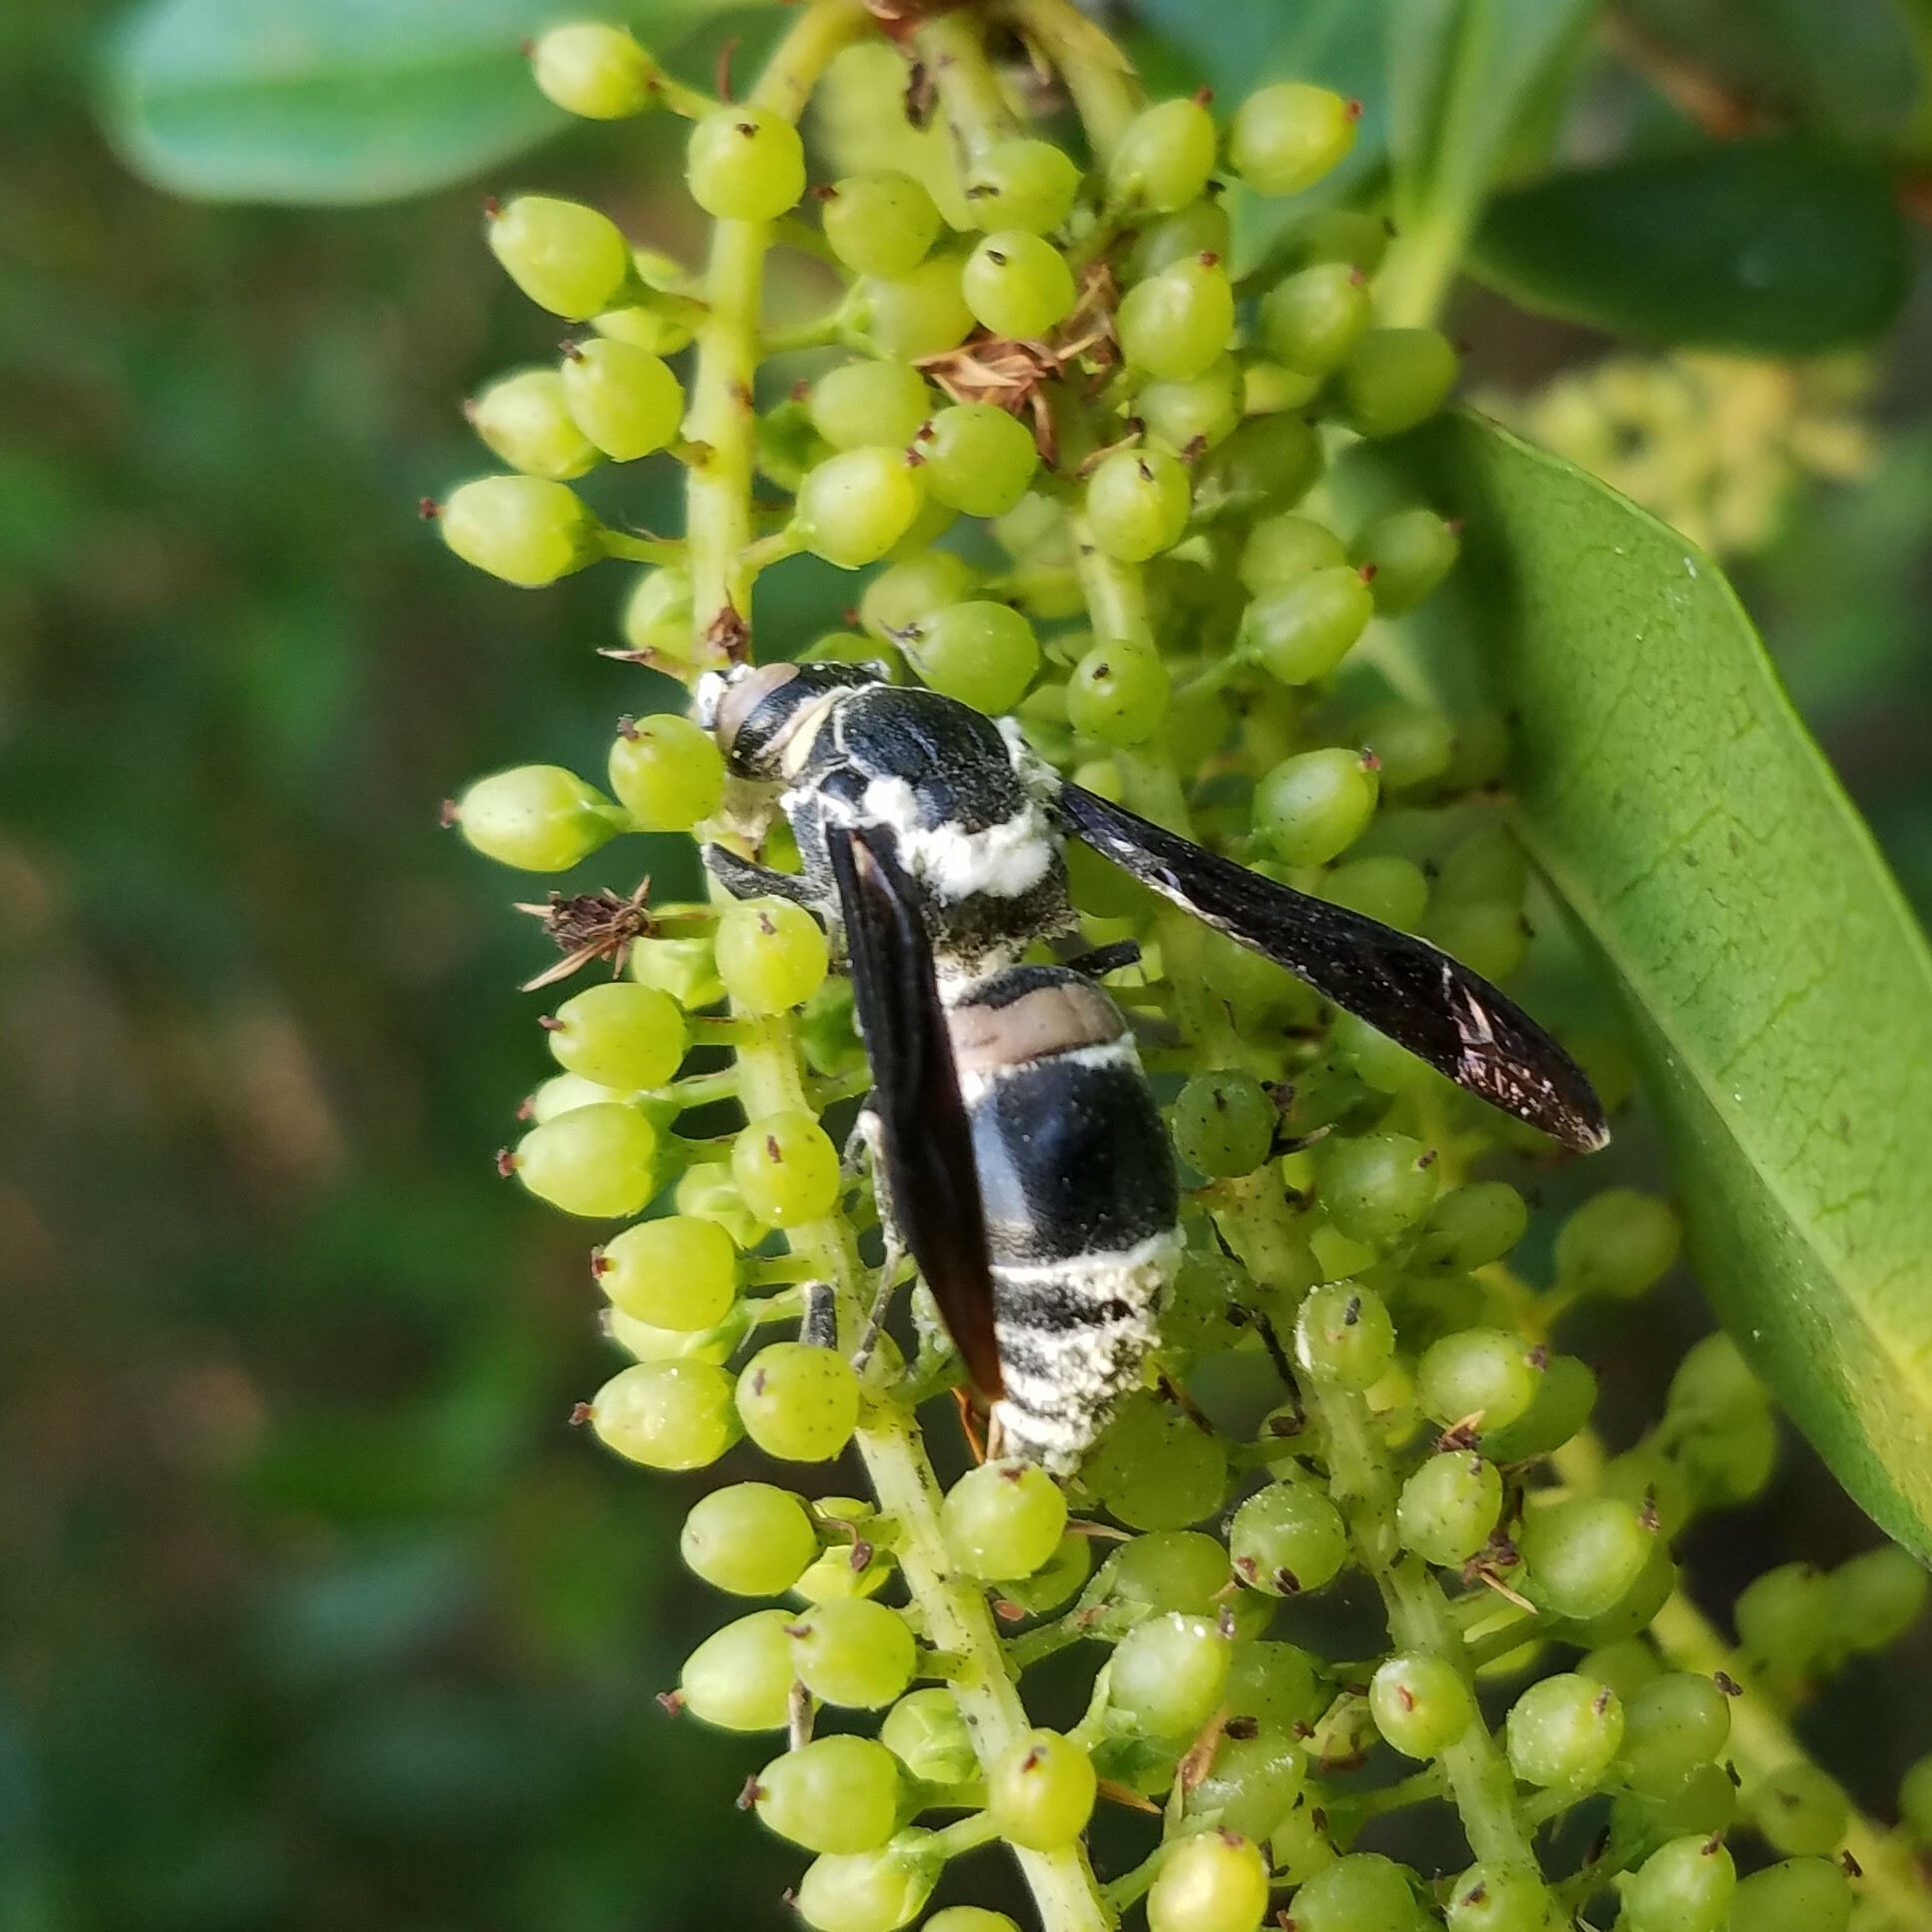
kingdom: Animalia
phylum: Arthropoda
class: Insecta
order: Hymenoptera
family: Eumenidae
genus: Monobia
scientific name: Monobia quadridens
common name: Four-toothed mason wasp
